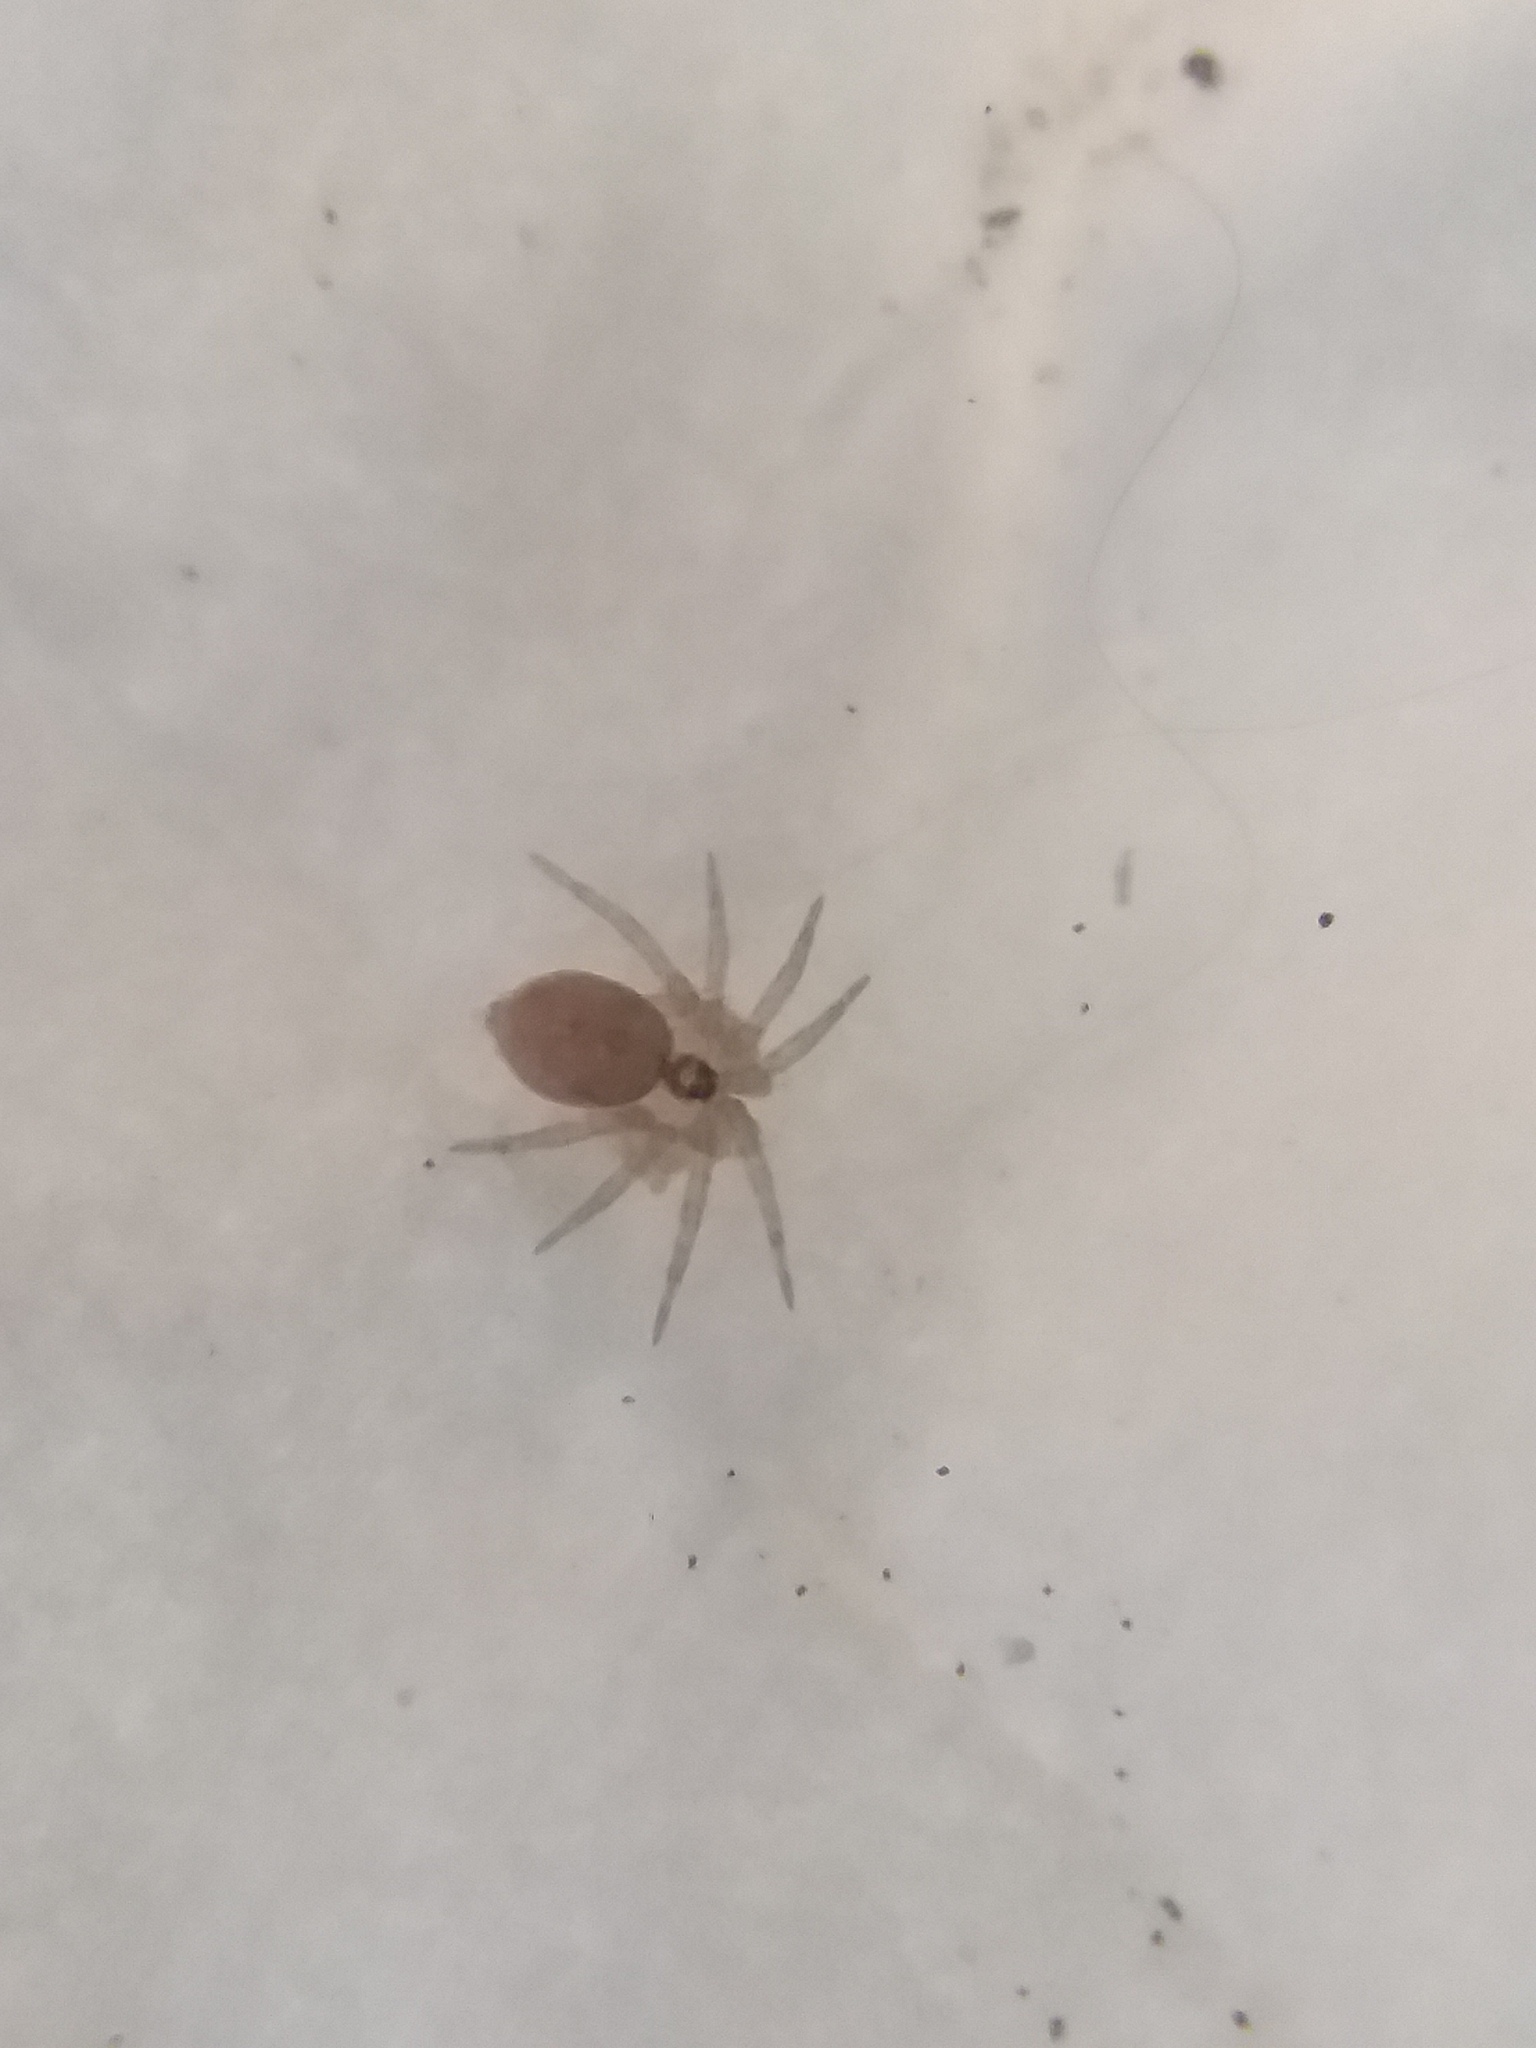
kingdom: Animalia
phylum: Arthropoda
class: Arachnida
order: Araneae
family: Oecobiidae
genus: Oecobius
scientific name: Oecobius navus
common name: Flatmesh weaver
